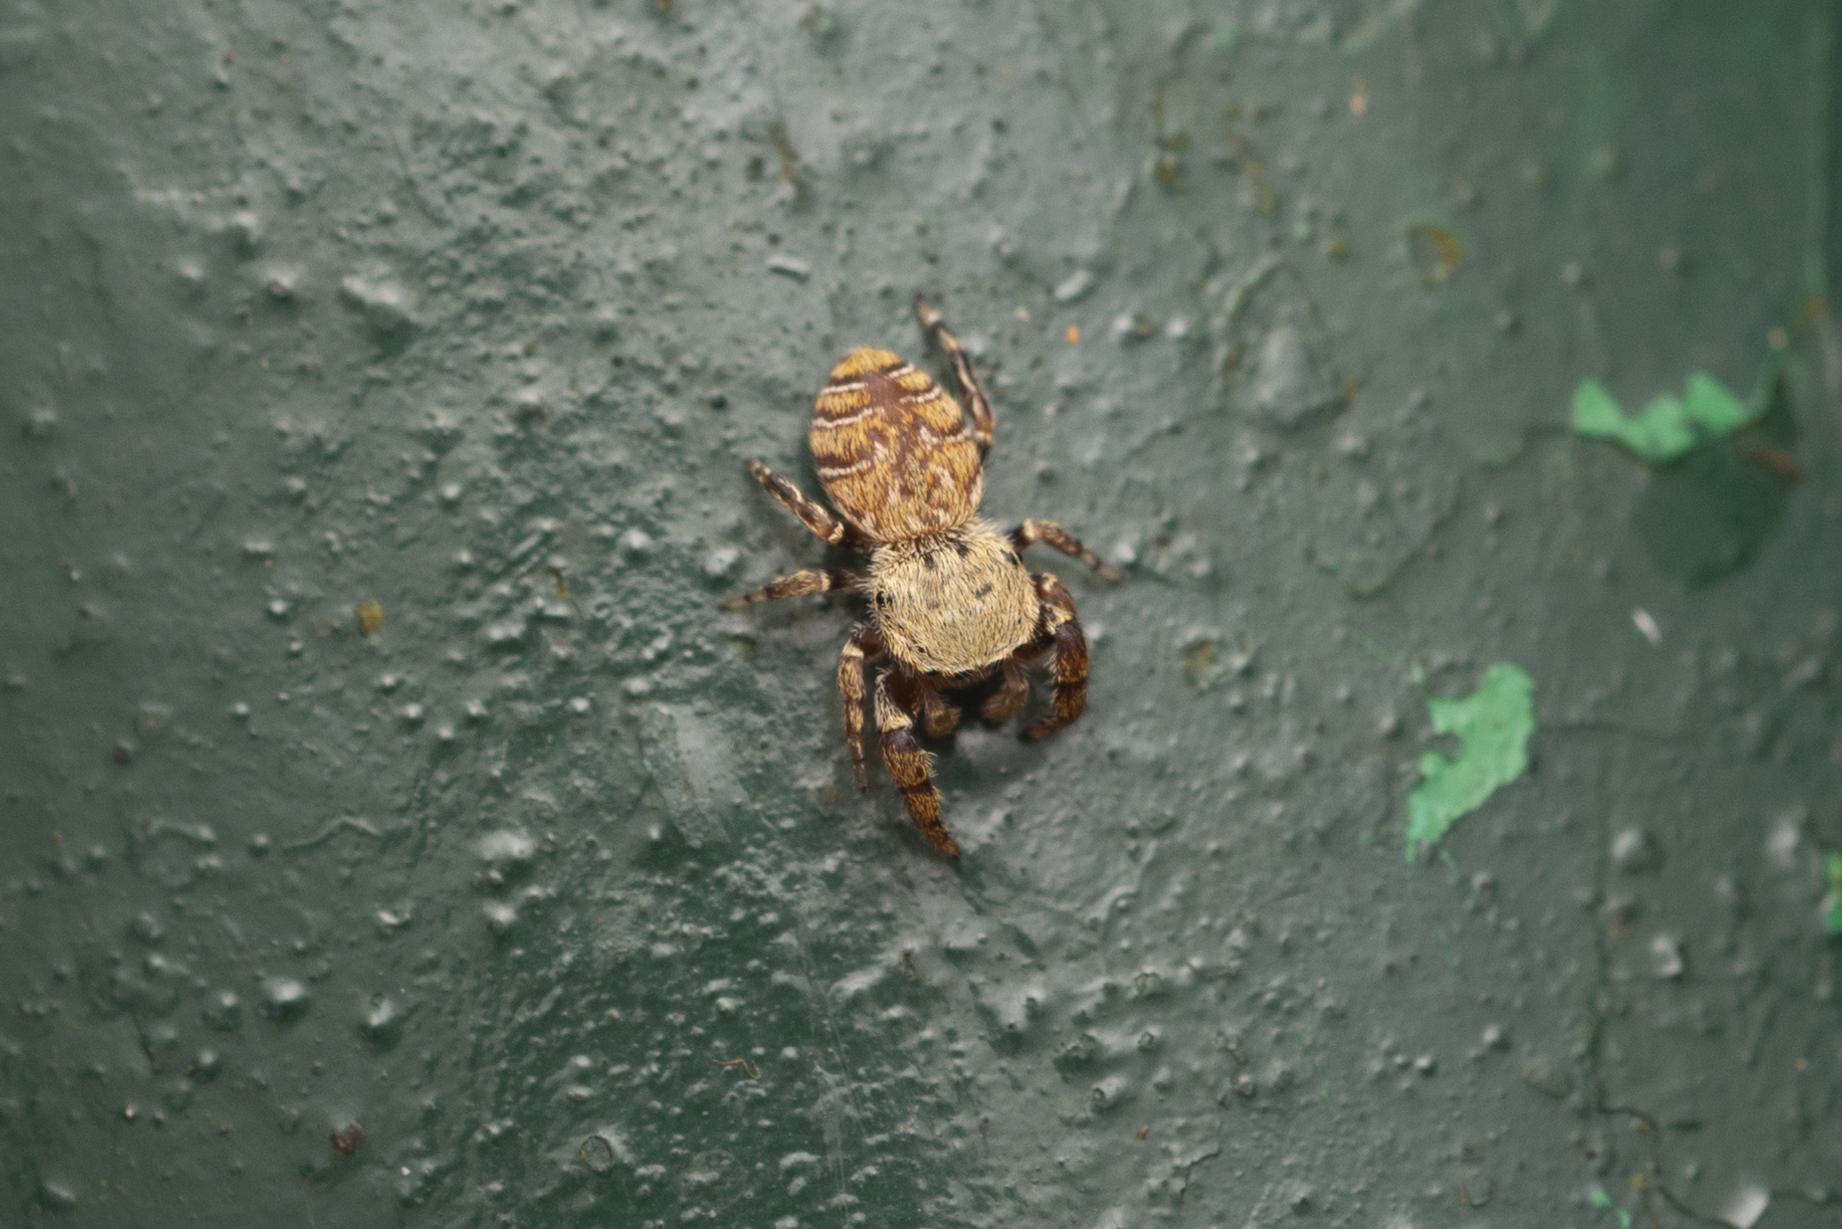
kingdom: Animalia
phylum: Arthropoda
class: Arachnida
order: Araneae
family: Salticidae
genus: Rhene
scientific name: Rhene flavicomans
